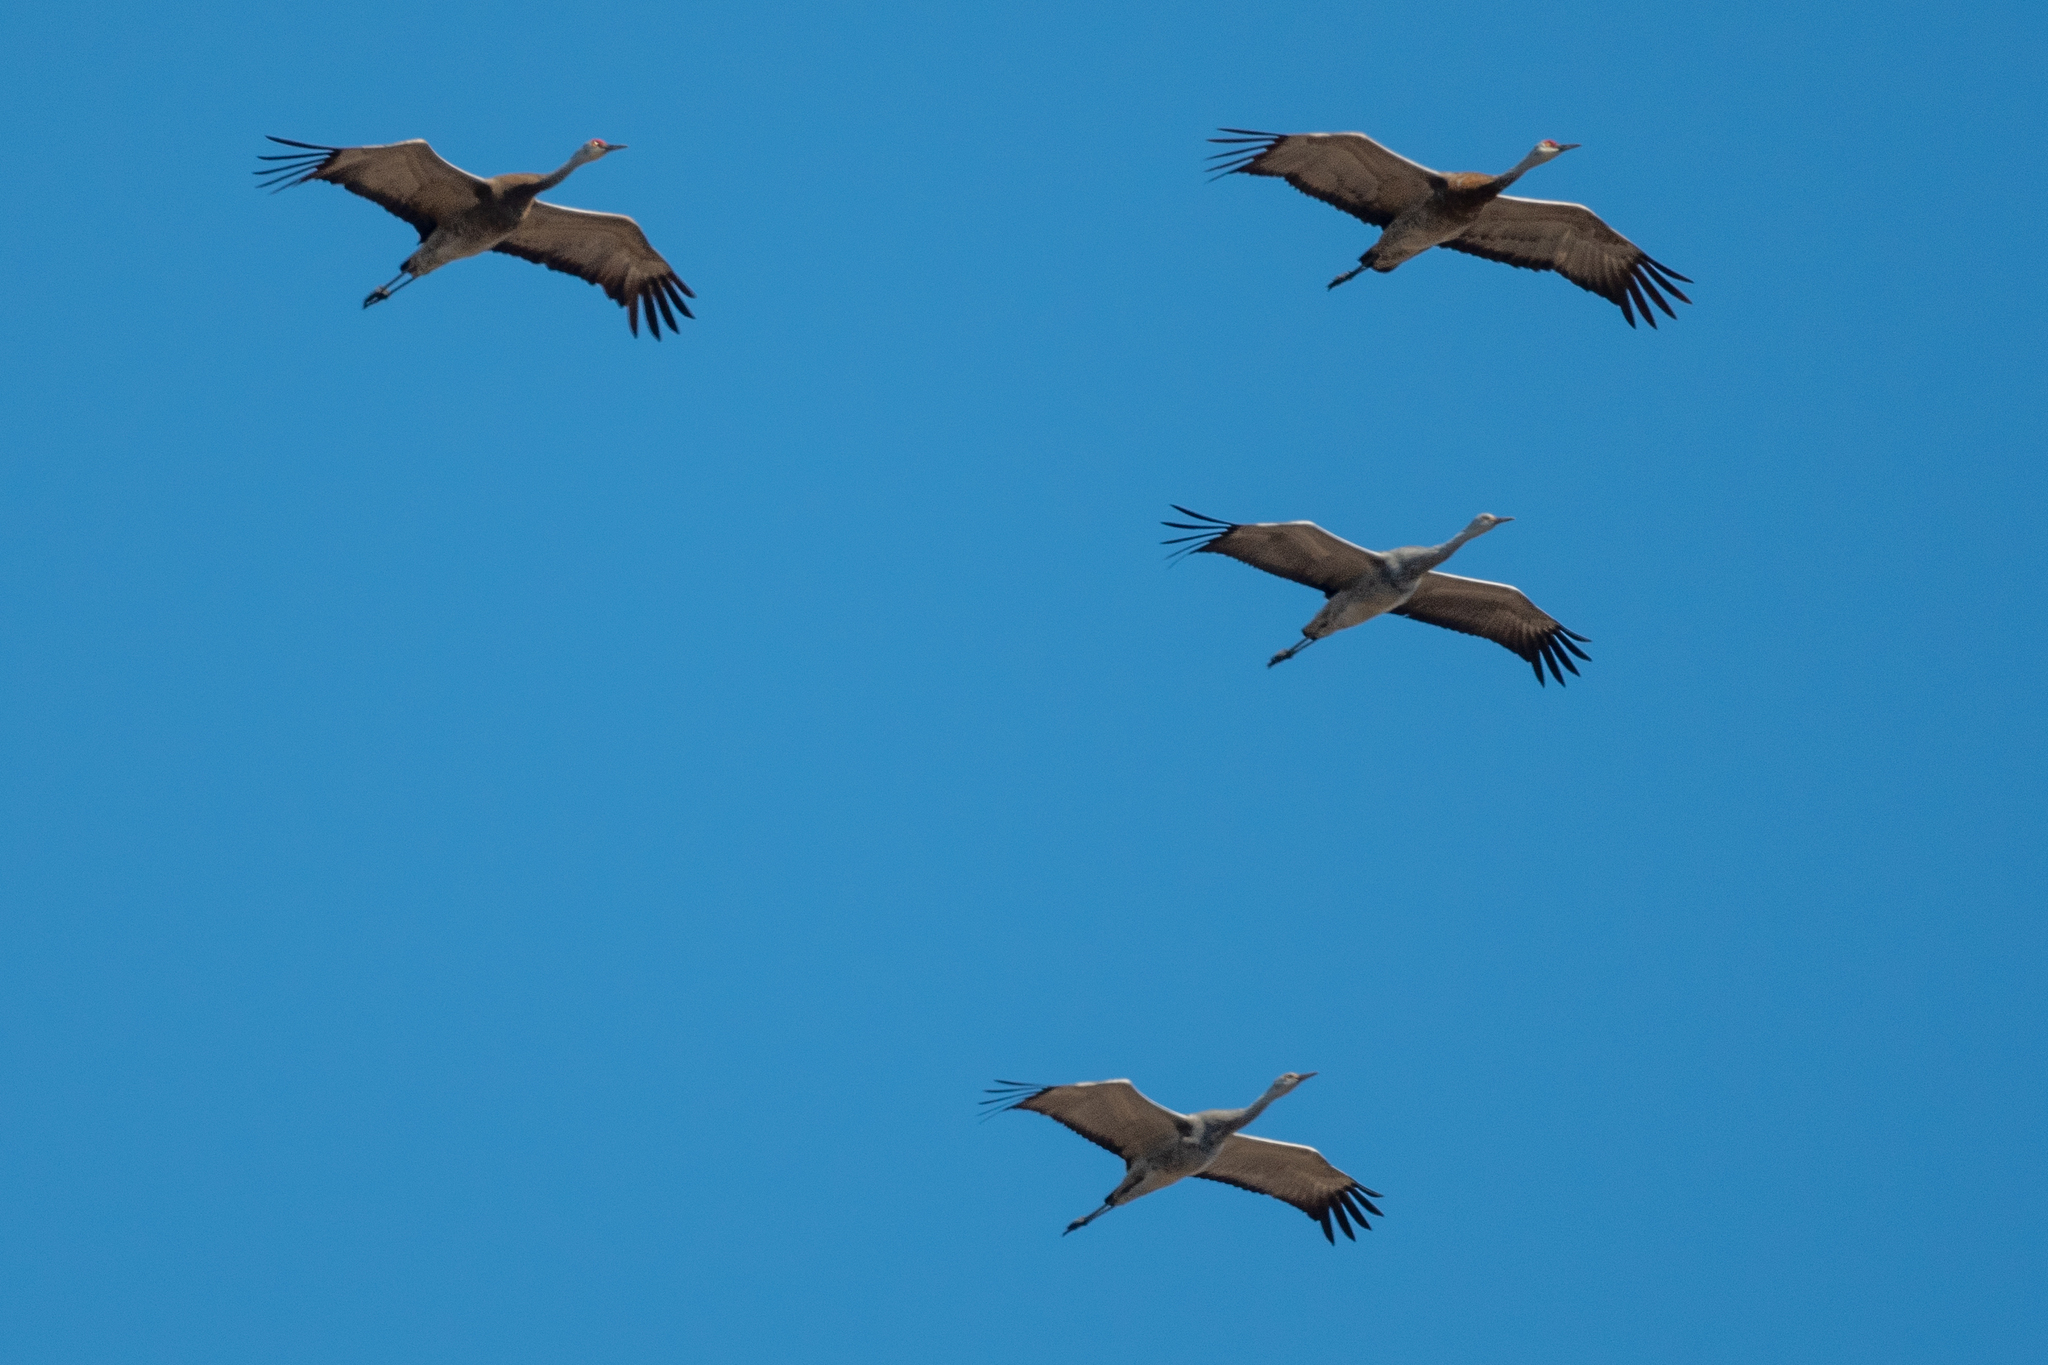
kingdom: Animalia
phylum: Chordata
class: Aves
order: Gruiformes
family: Gruidae
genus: Grus
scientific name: Grus canadensis
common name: Sandhill crane
